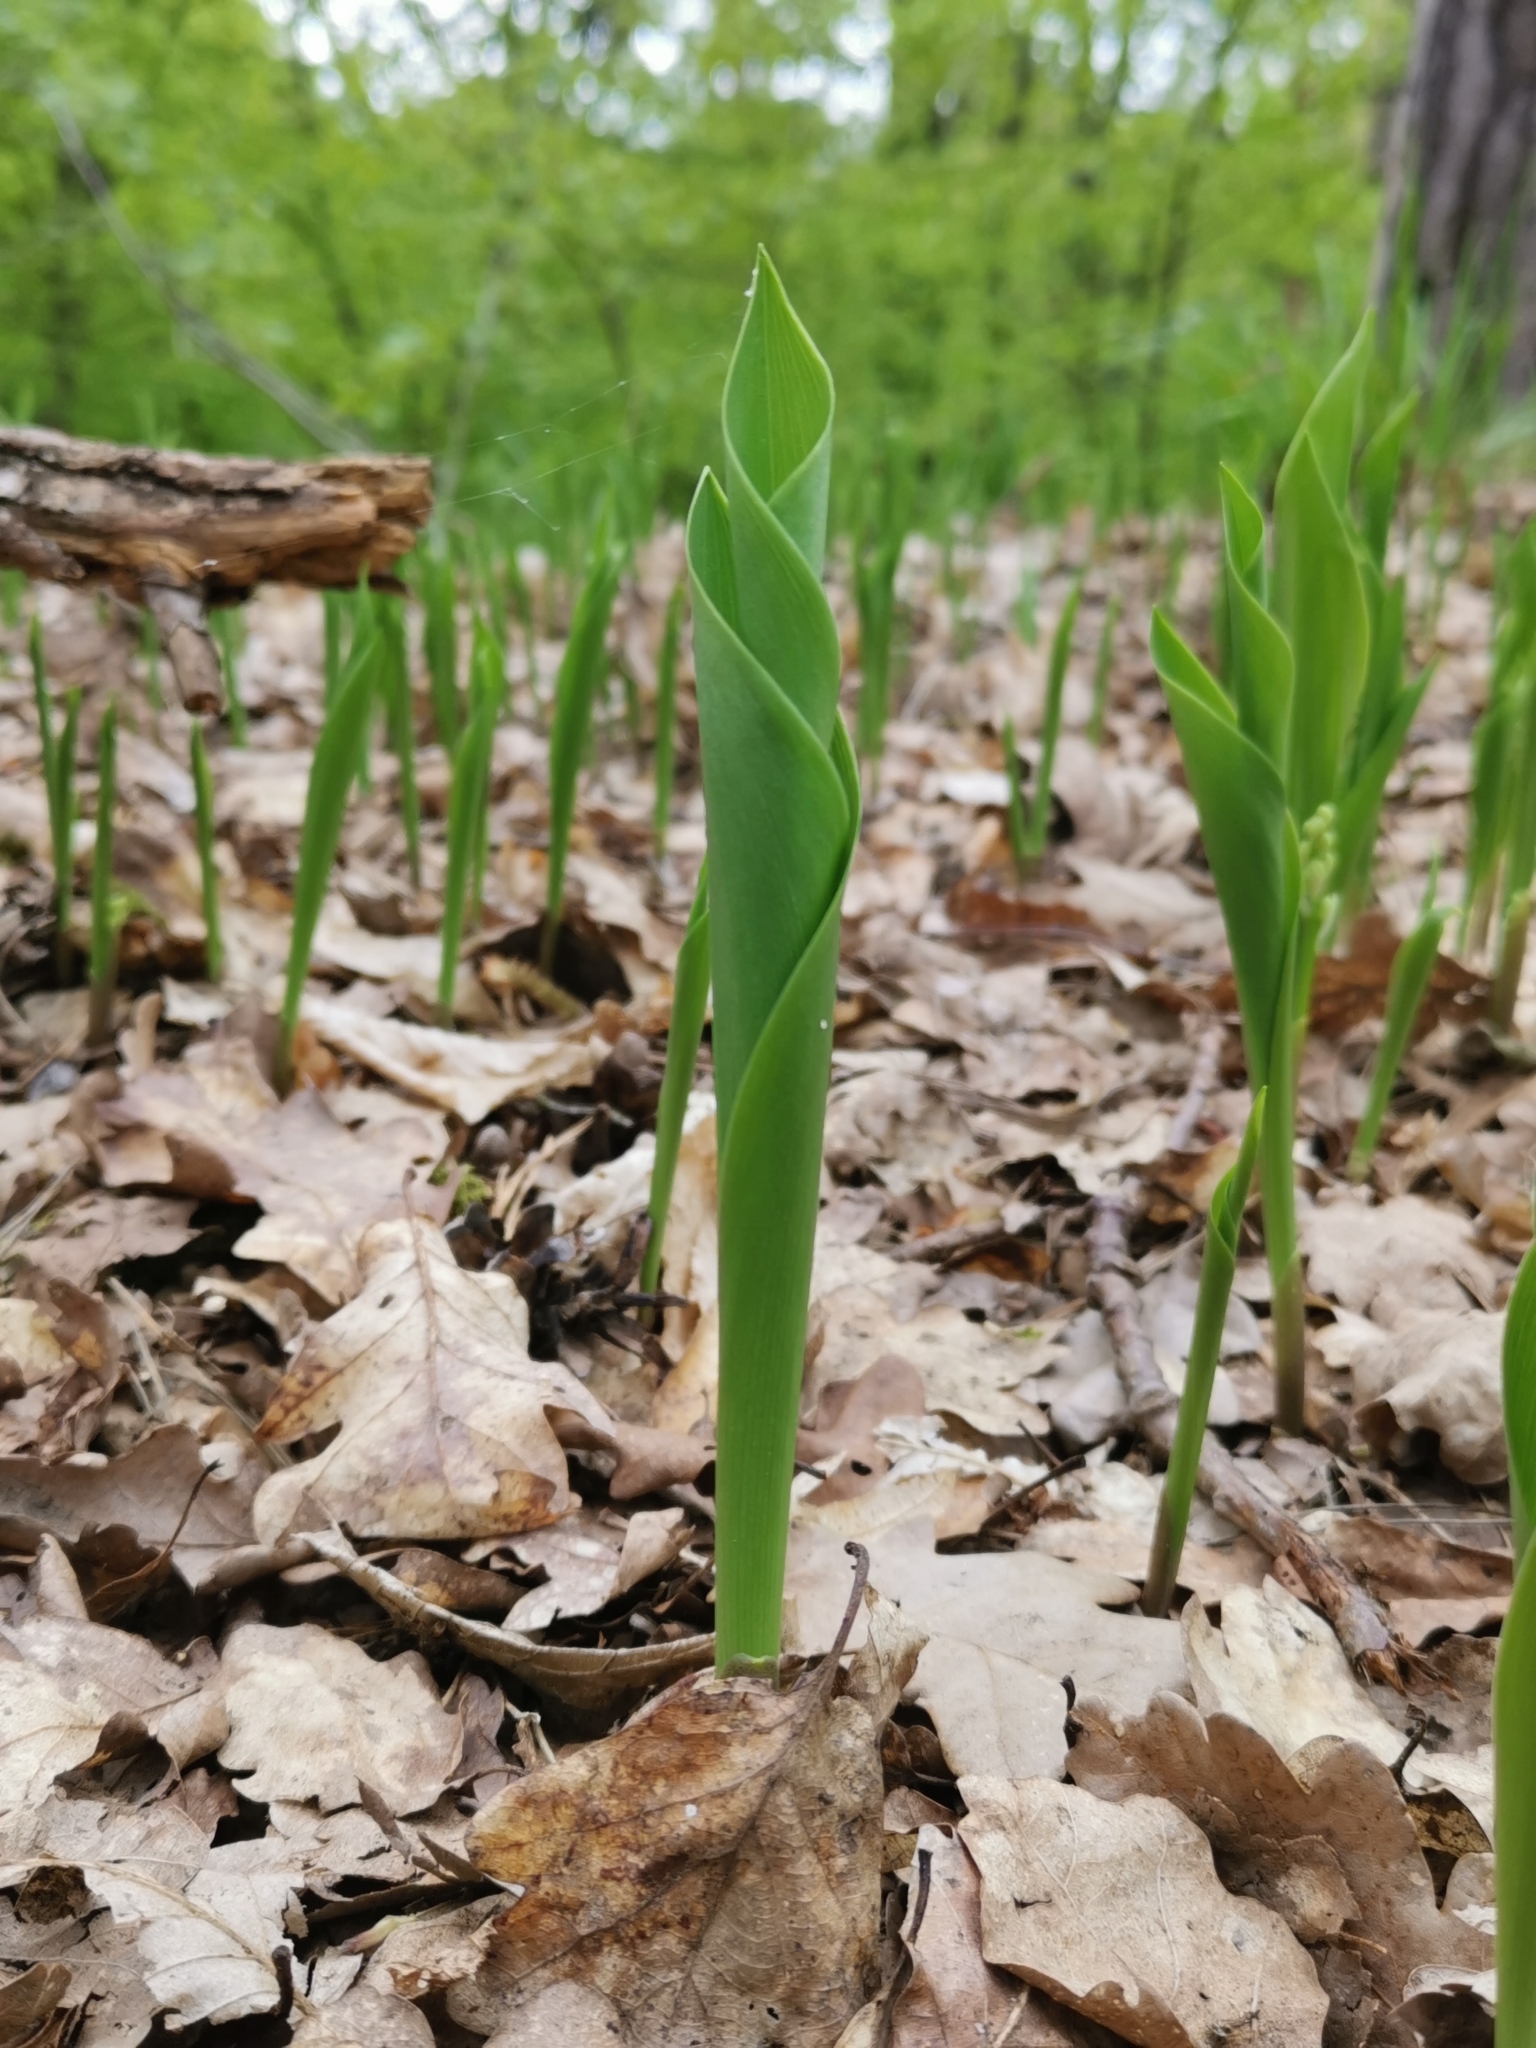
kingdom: Plantae
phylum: Tracheophyta
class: Liliopsida
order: Asparagales
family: Asparagaceae
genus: Convallaria
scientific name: Convallaria majalis
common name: Lily-of-the-valley
